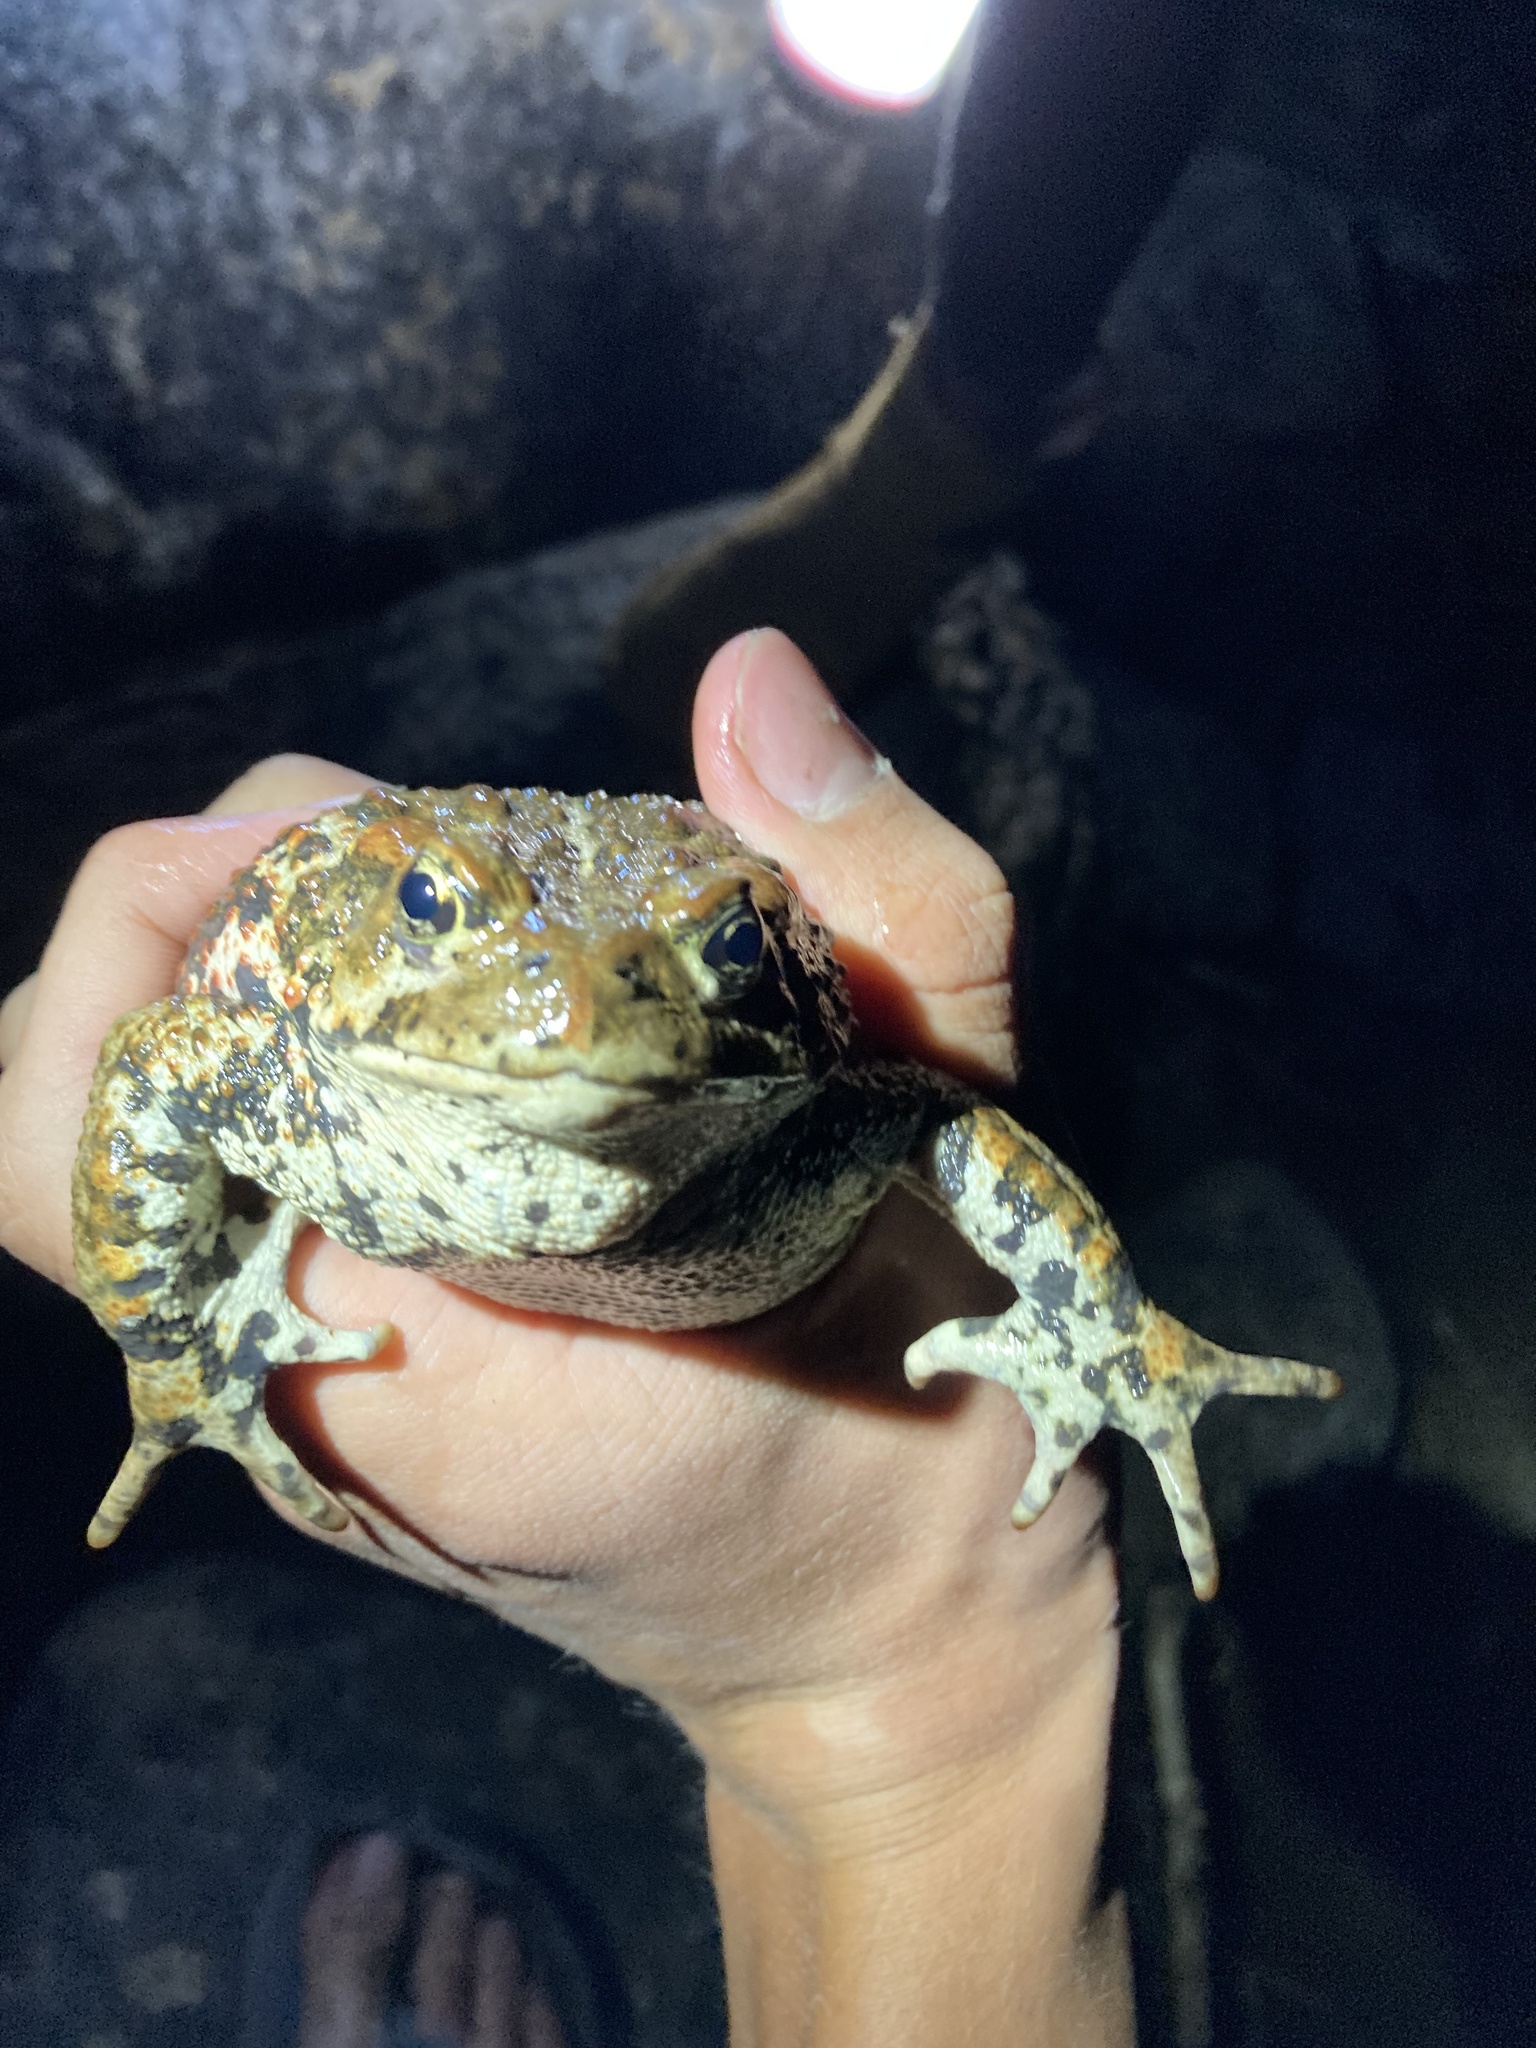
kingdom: Animalia
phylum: Chordata
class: Amphibia
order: Anura
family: Bufonidae
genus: Anaxyrus
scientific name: Anaxyrus boreas
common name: Western toad
